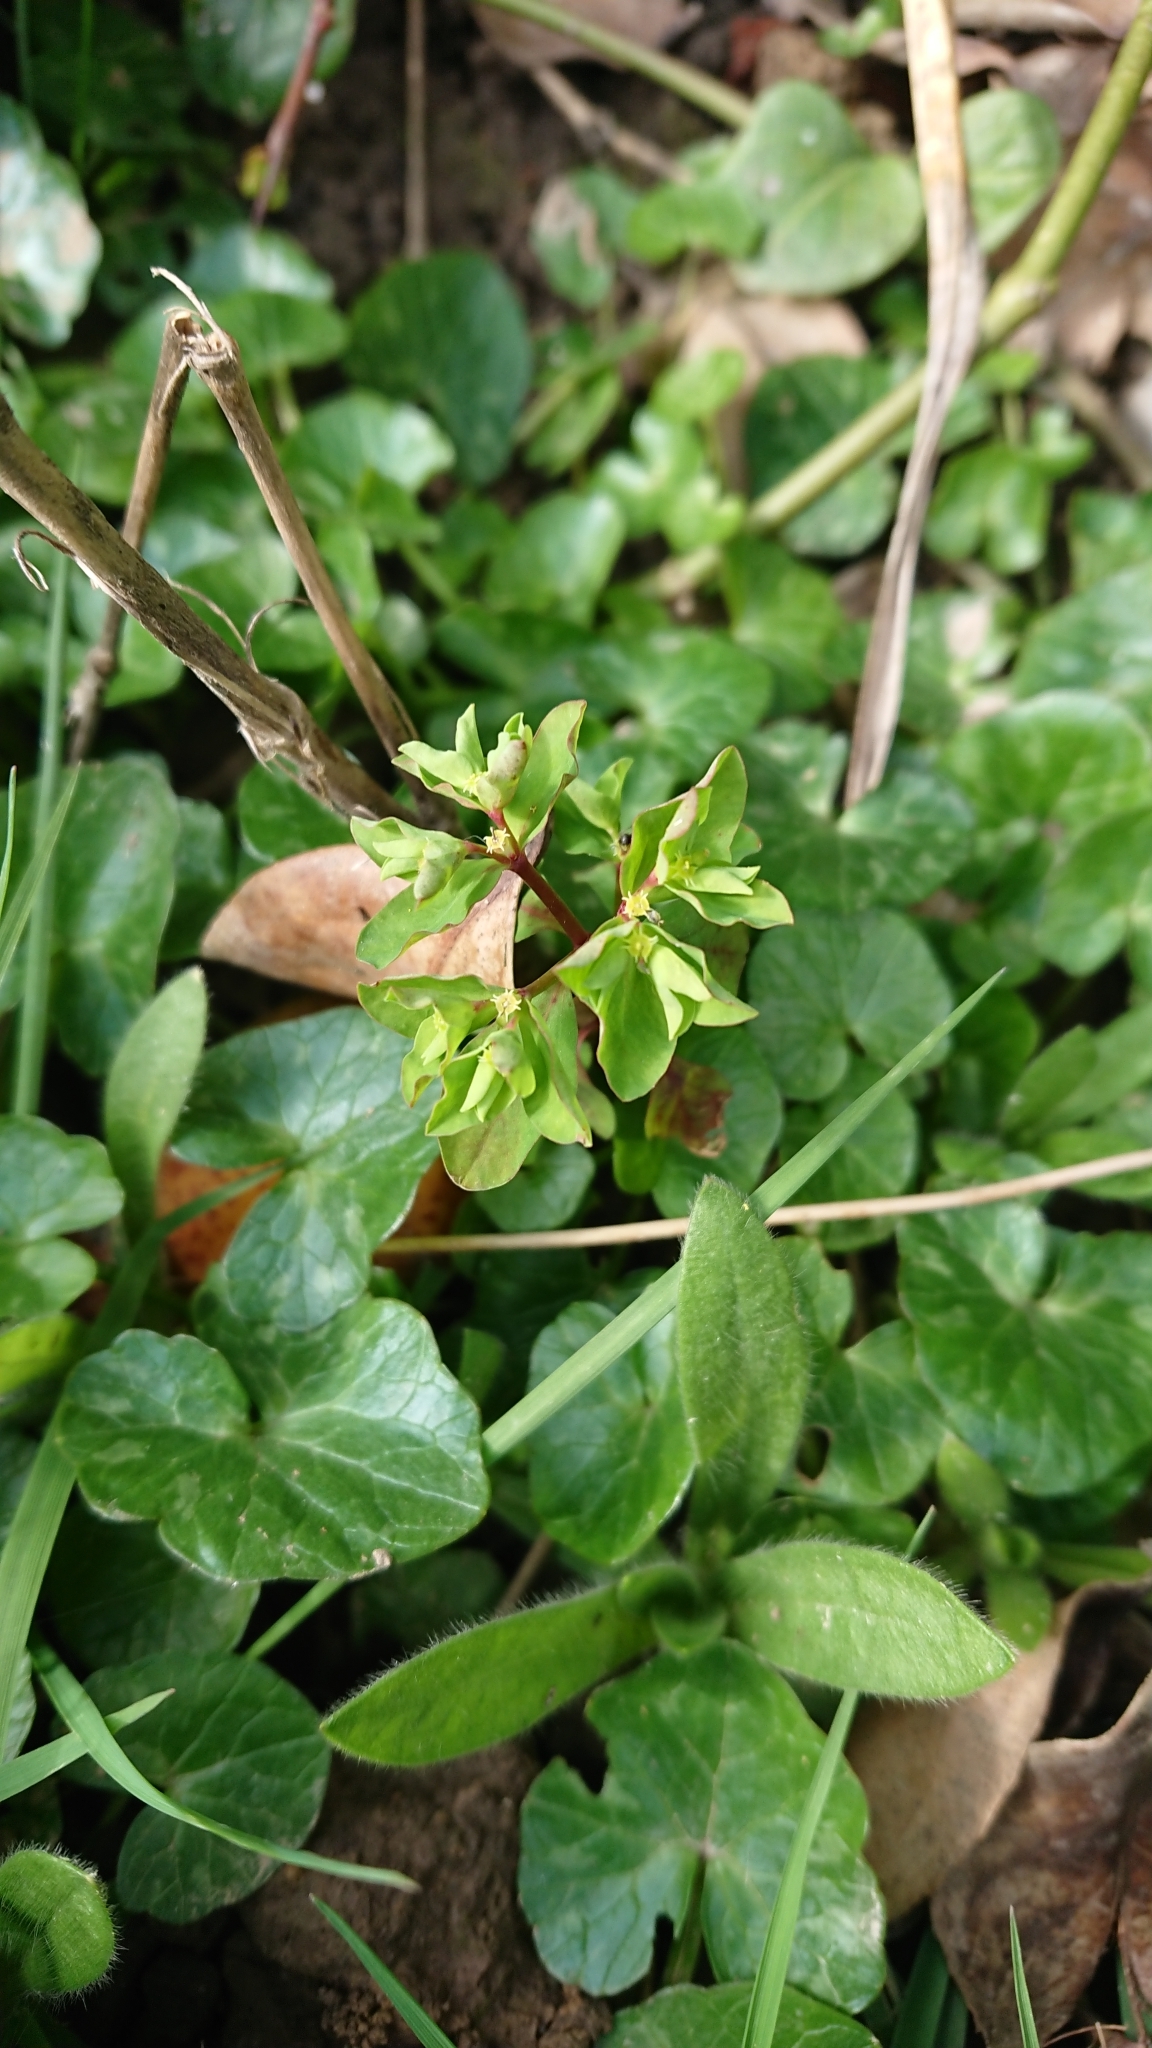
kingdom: Plantae
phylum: Tracheophyta
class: Magnoliopsida
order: Malpighiales
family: Euphorbiaceae
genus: Euphorbia
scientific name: Euphorbia peplus
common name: Petty spurge
